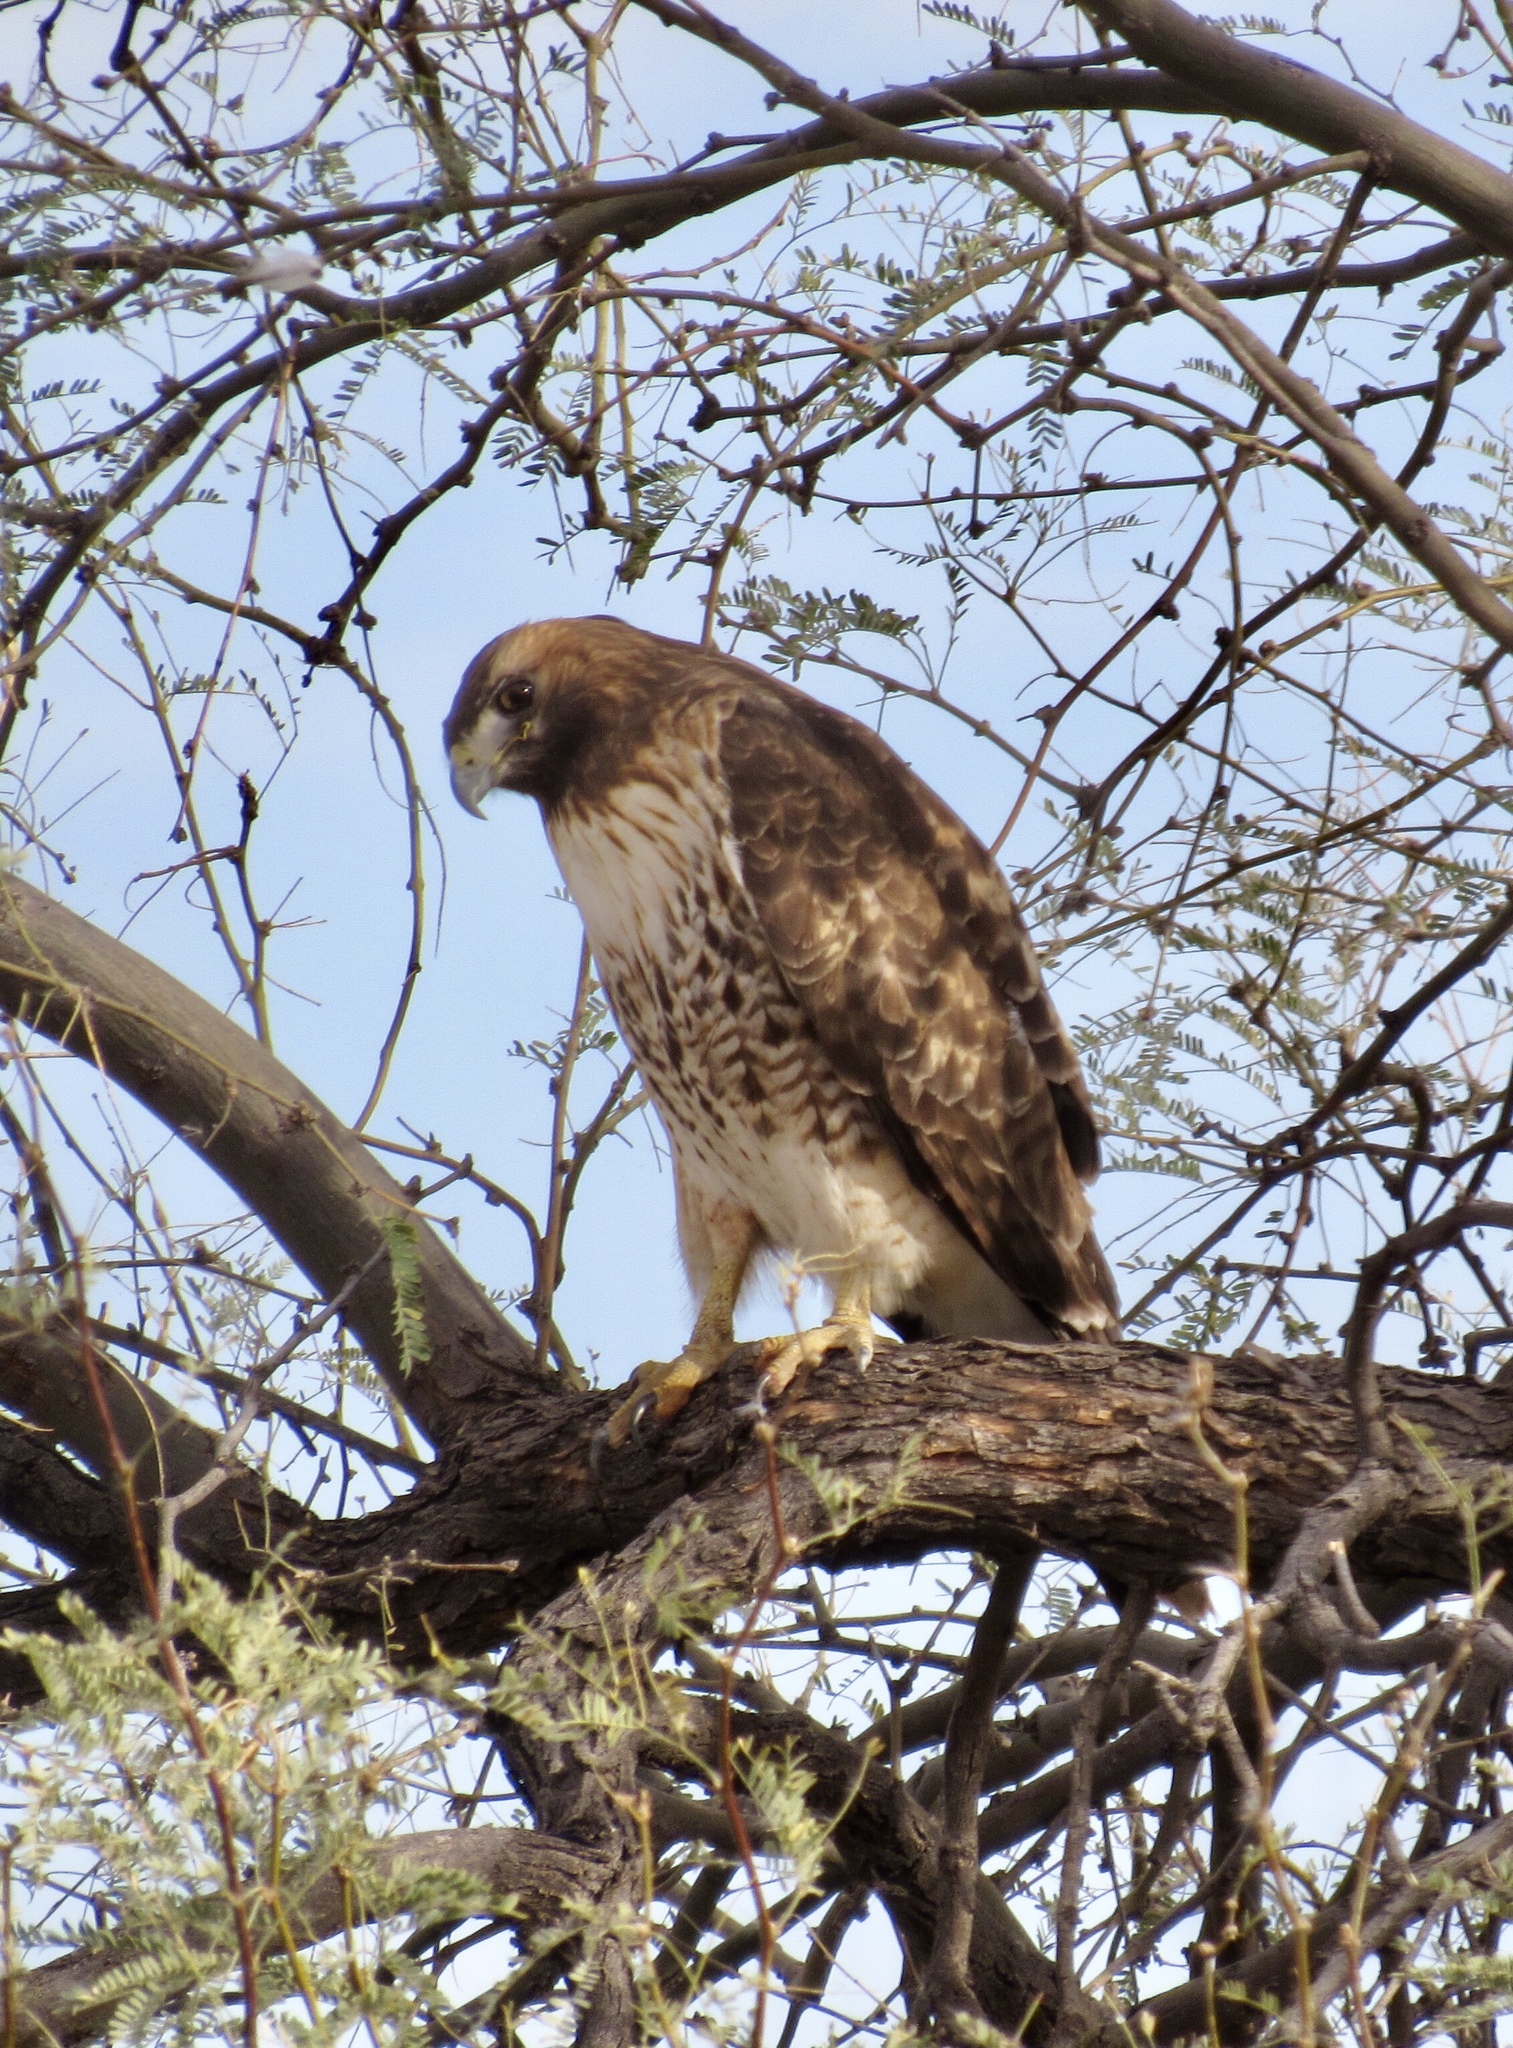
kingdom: Animalia
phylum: Chordata
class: Aves
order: Accipitriformes
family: Accipitridae
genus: Buteo
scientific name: Buteo jamaicensis
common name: Red-tailed hawk
